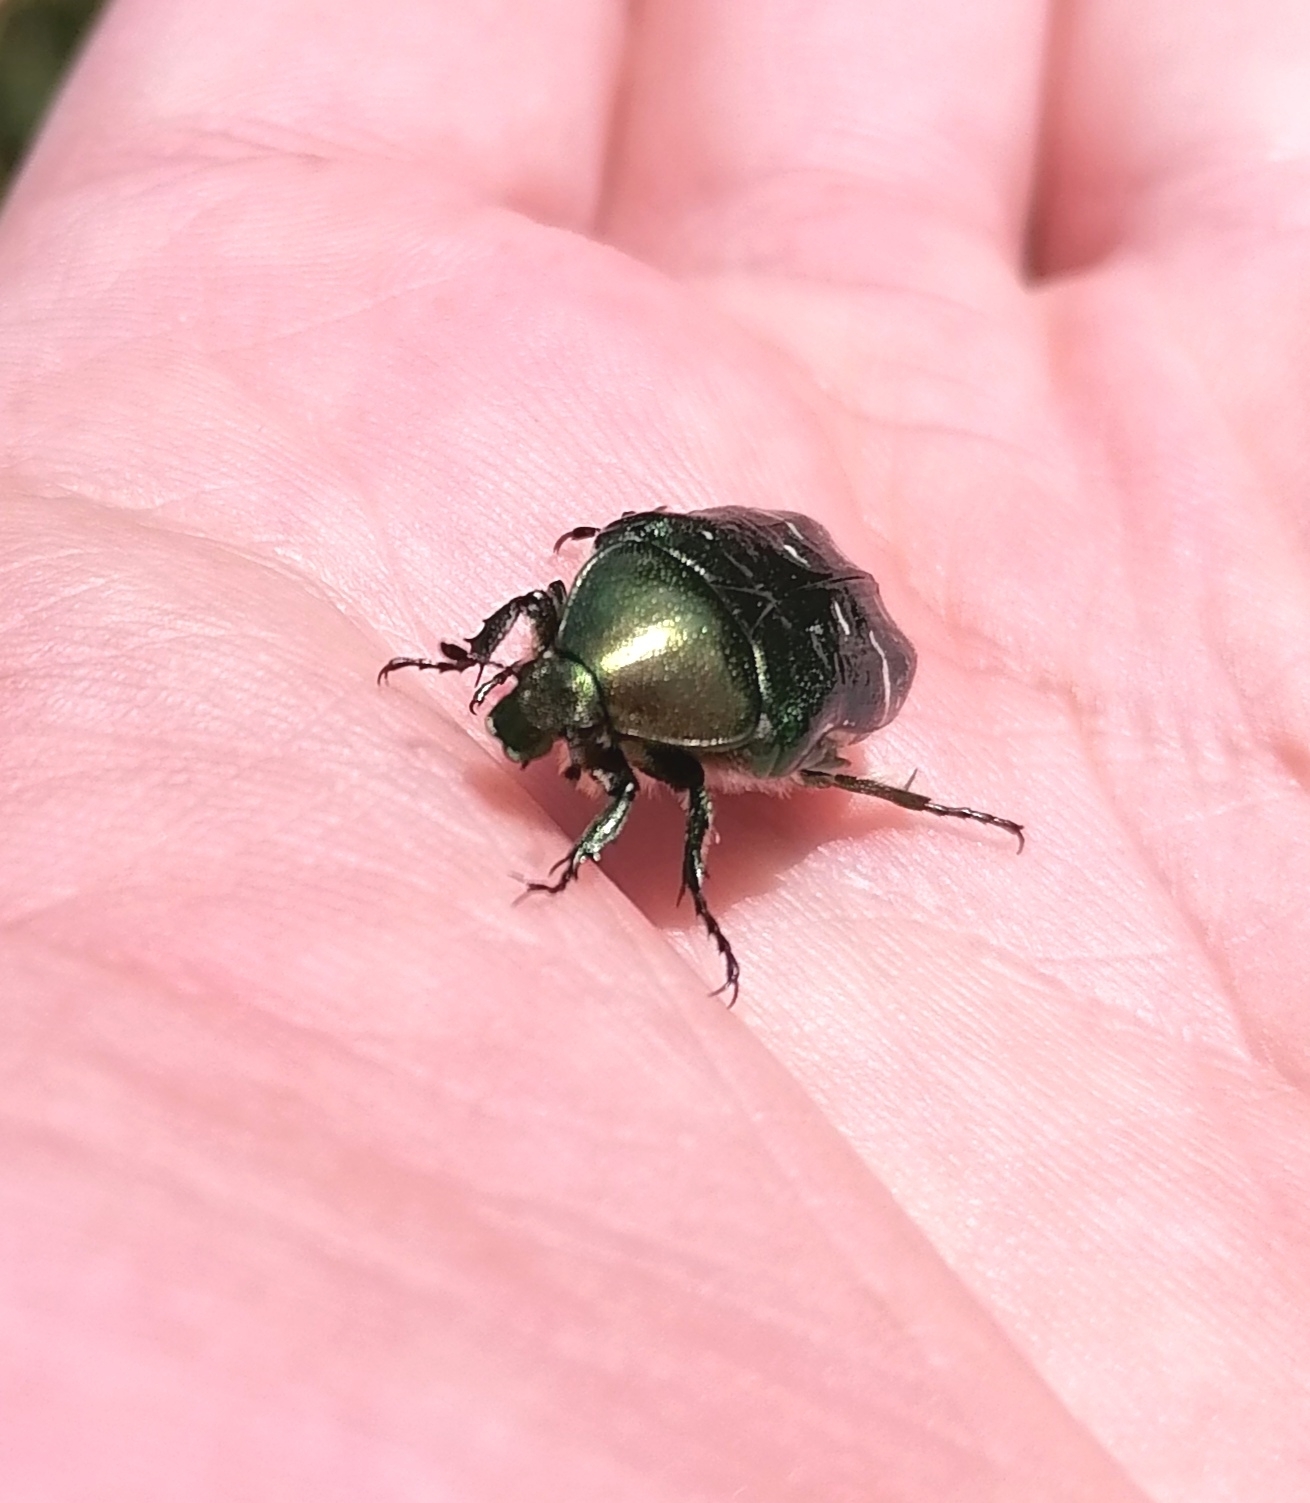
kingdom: Animalia
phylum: Arthropoda
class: Insecta
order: Coleoptera
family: Scarabaeidae
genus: Cetonia
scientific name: Cetonia aurata
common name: Rose chafer
